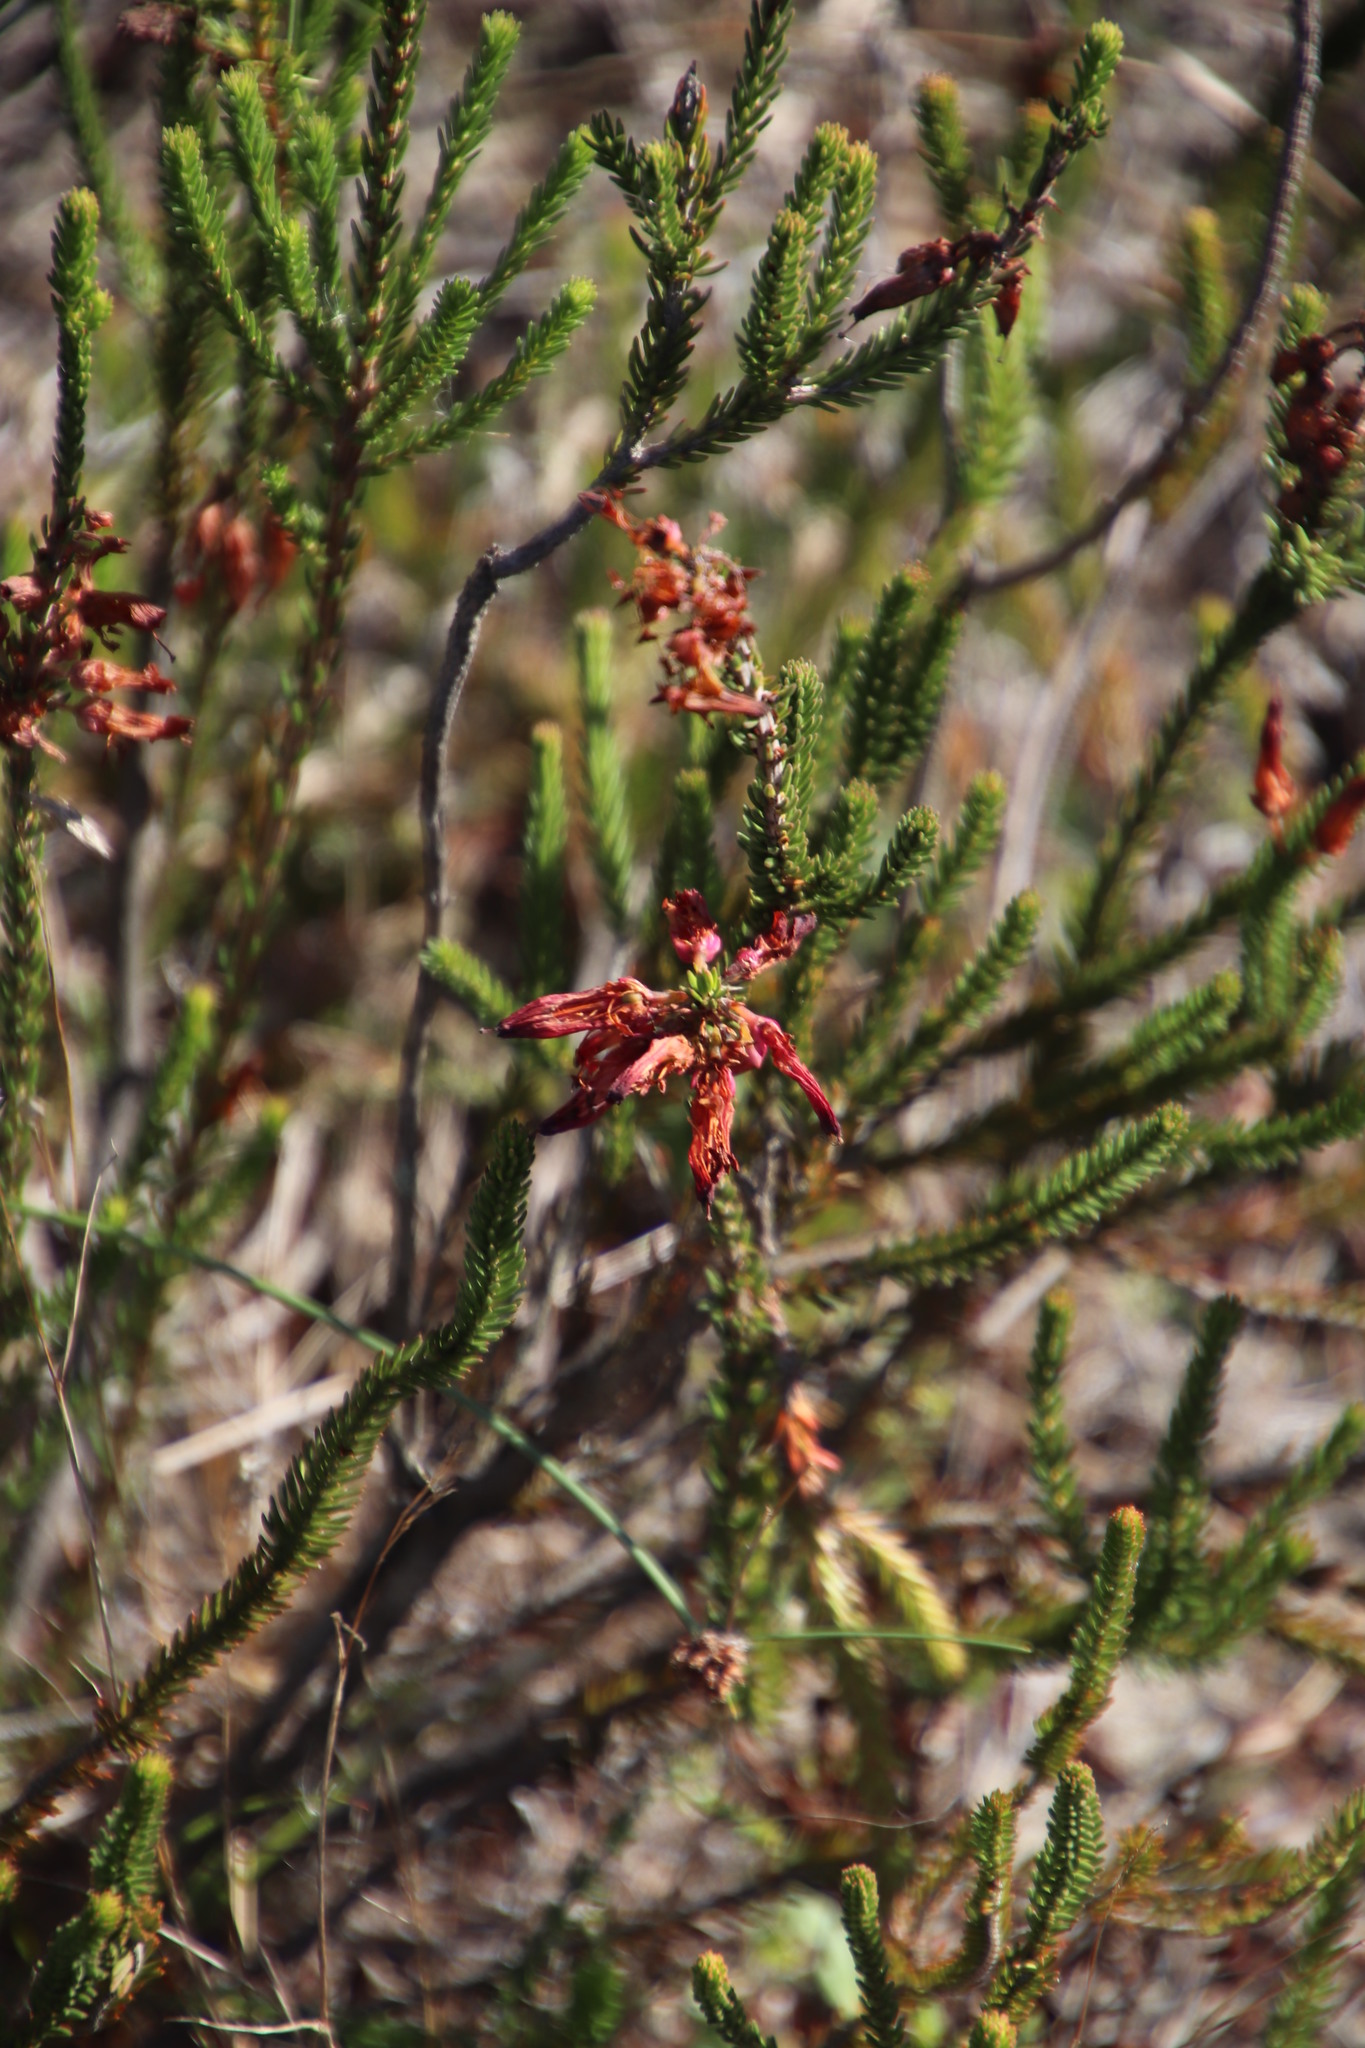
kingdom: Plantae
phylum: Tracheophyta
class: Magnoliopsida
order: Ericales
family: Ericaceae
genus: Erica
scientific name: Erica mammosa
